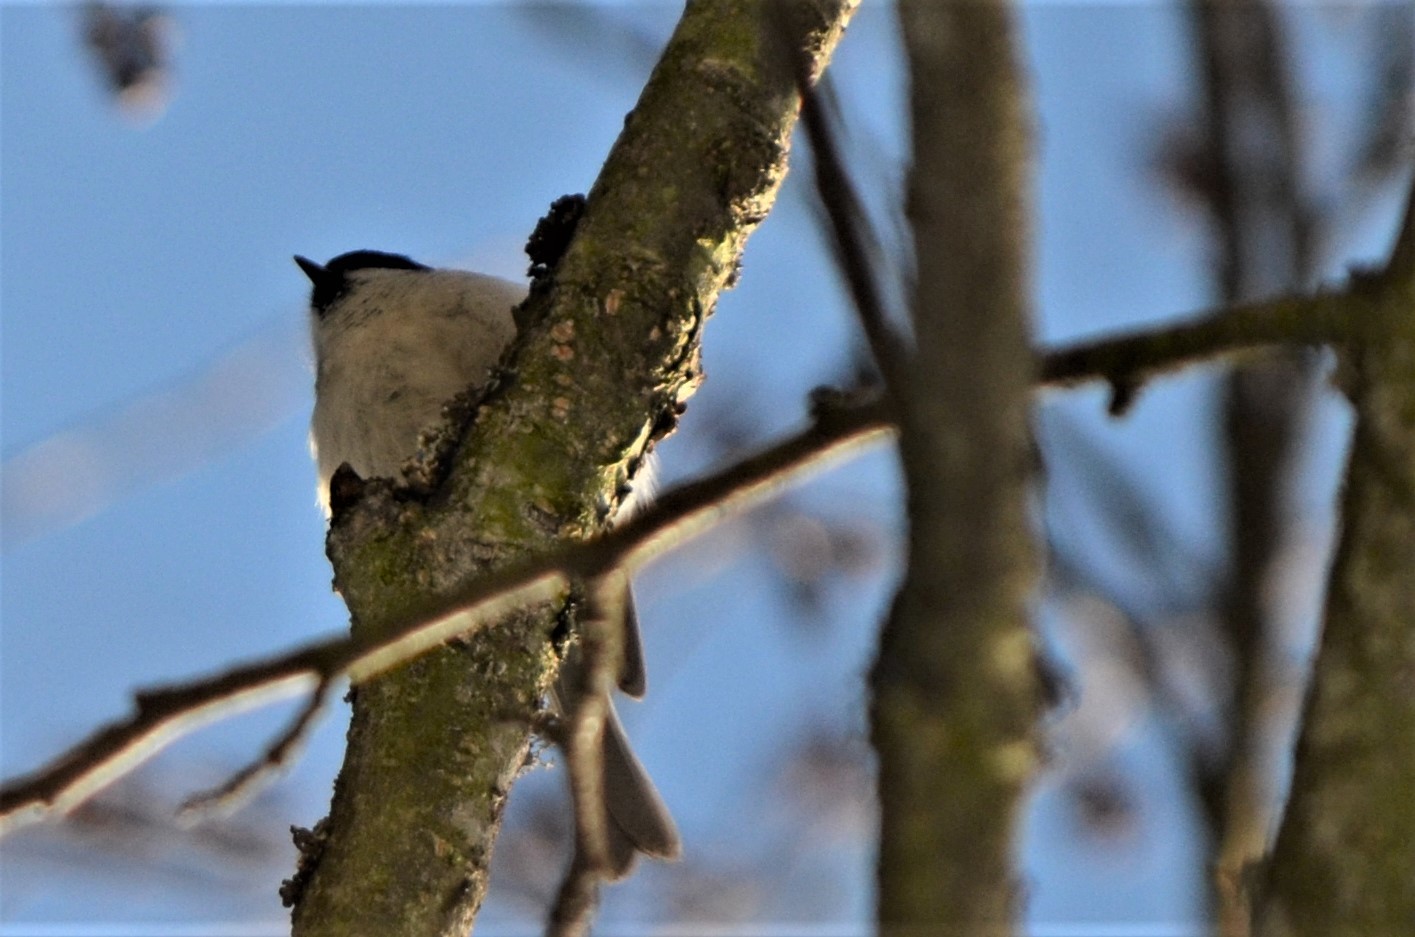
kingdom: Animalia
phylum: Chordata
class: Aves
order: Passeriformes
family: Paridae
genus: Poecile
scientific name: Poecile palustris
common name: Marsh tit
